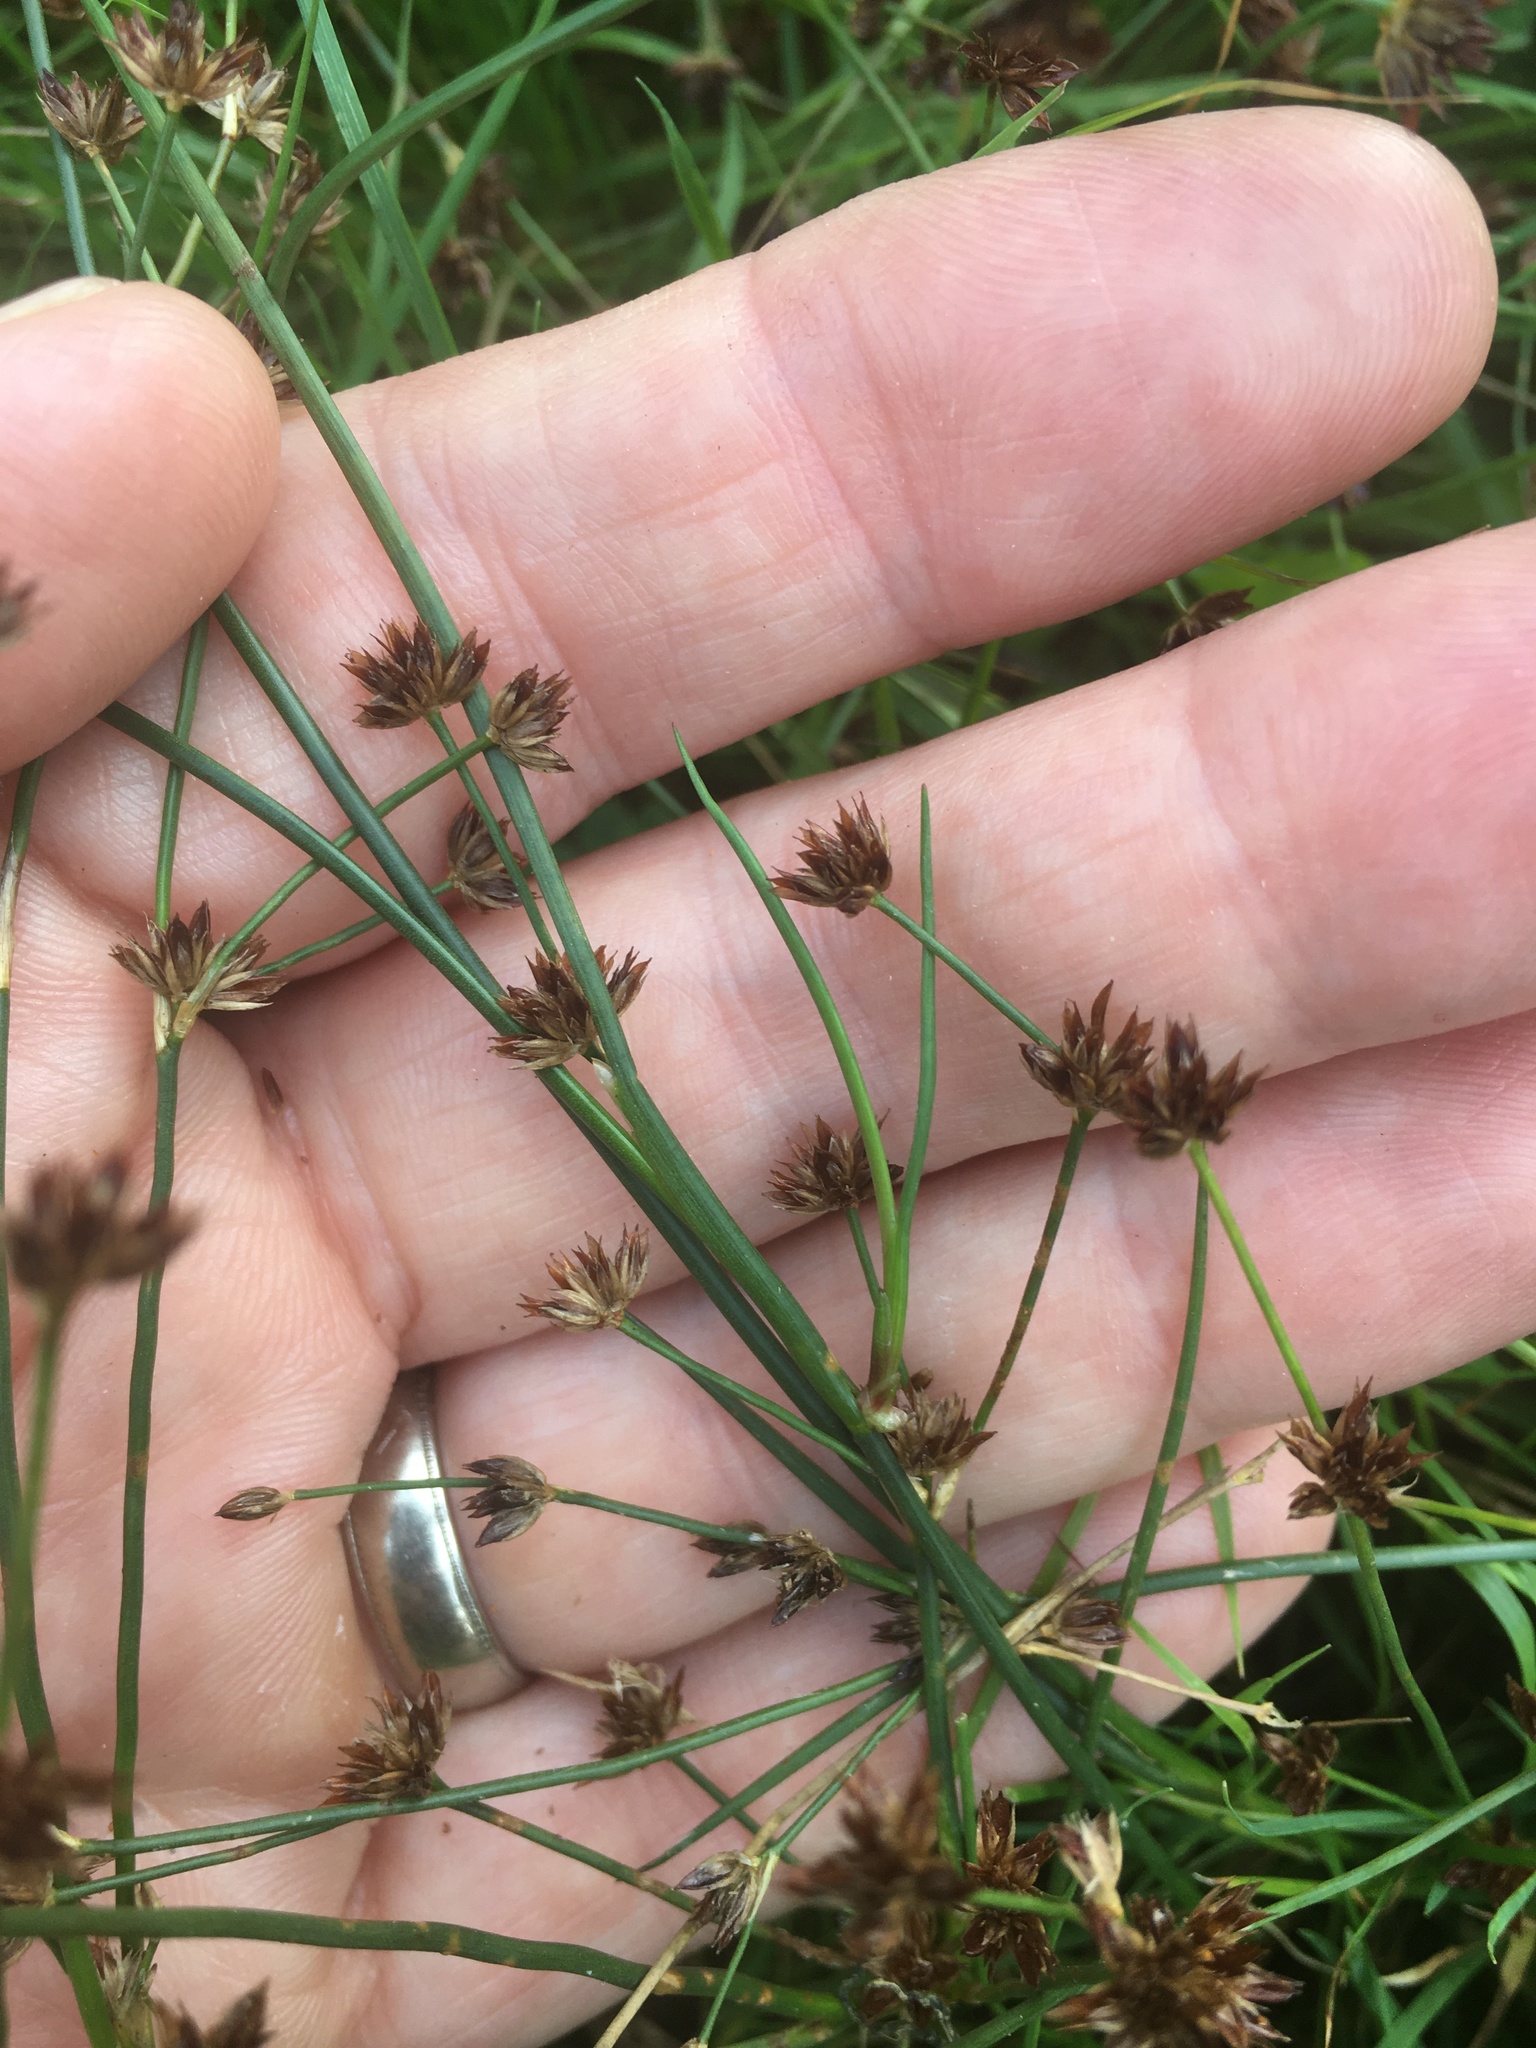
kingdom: Plantae
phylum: Tracheophyta
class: Liliopsida
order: Poales
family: Juncaceae
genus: Juncus
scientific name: Juncus articulatus
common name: Jointed rush
